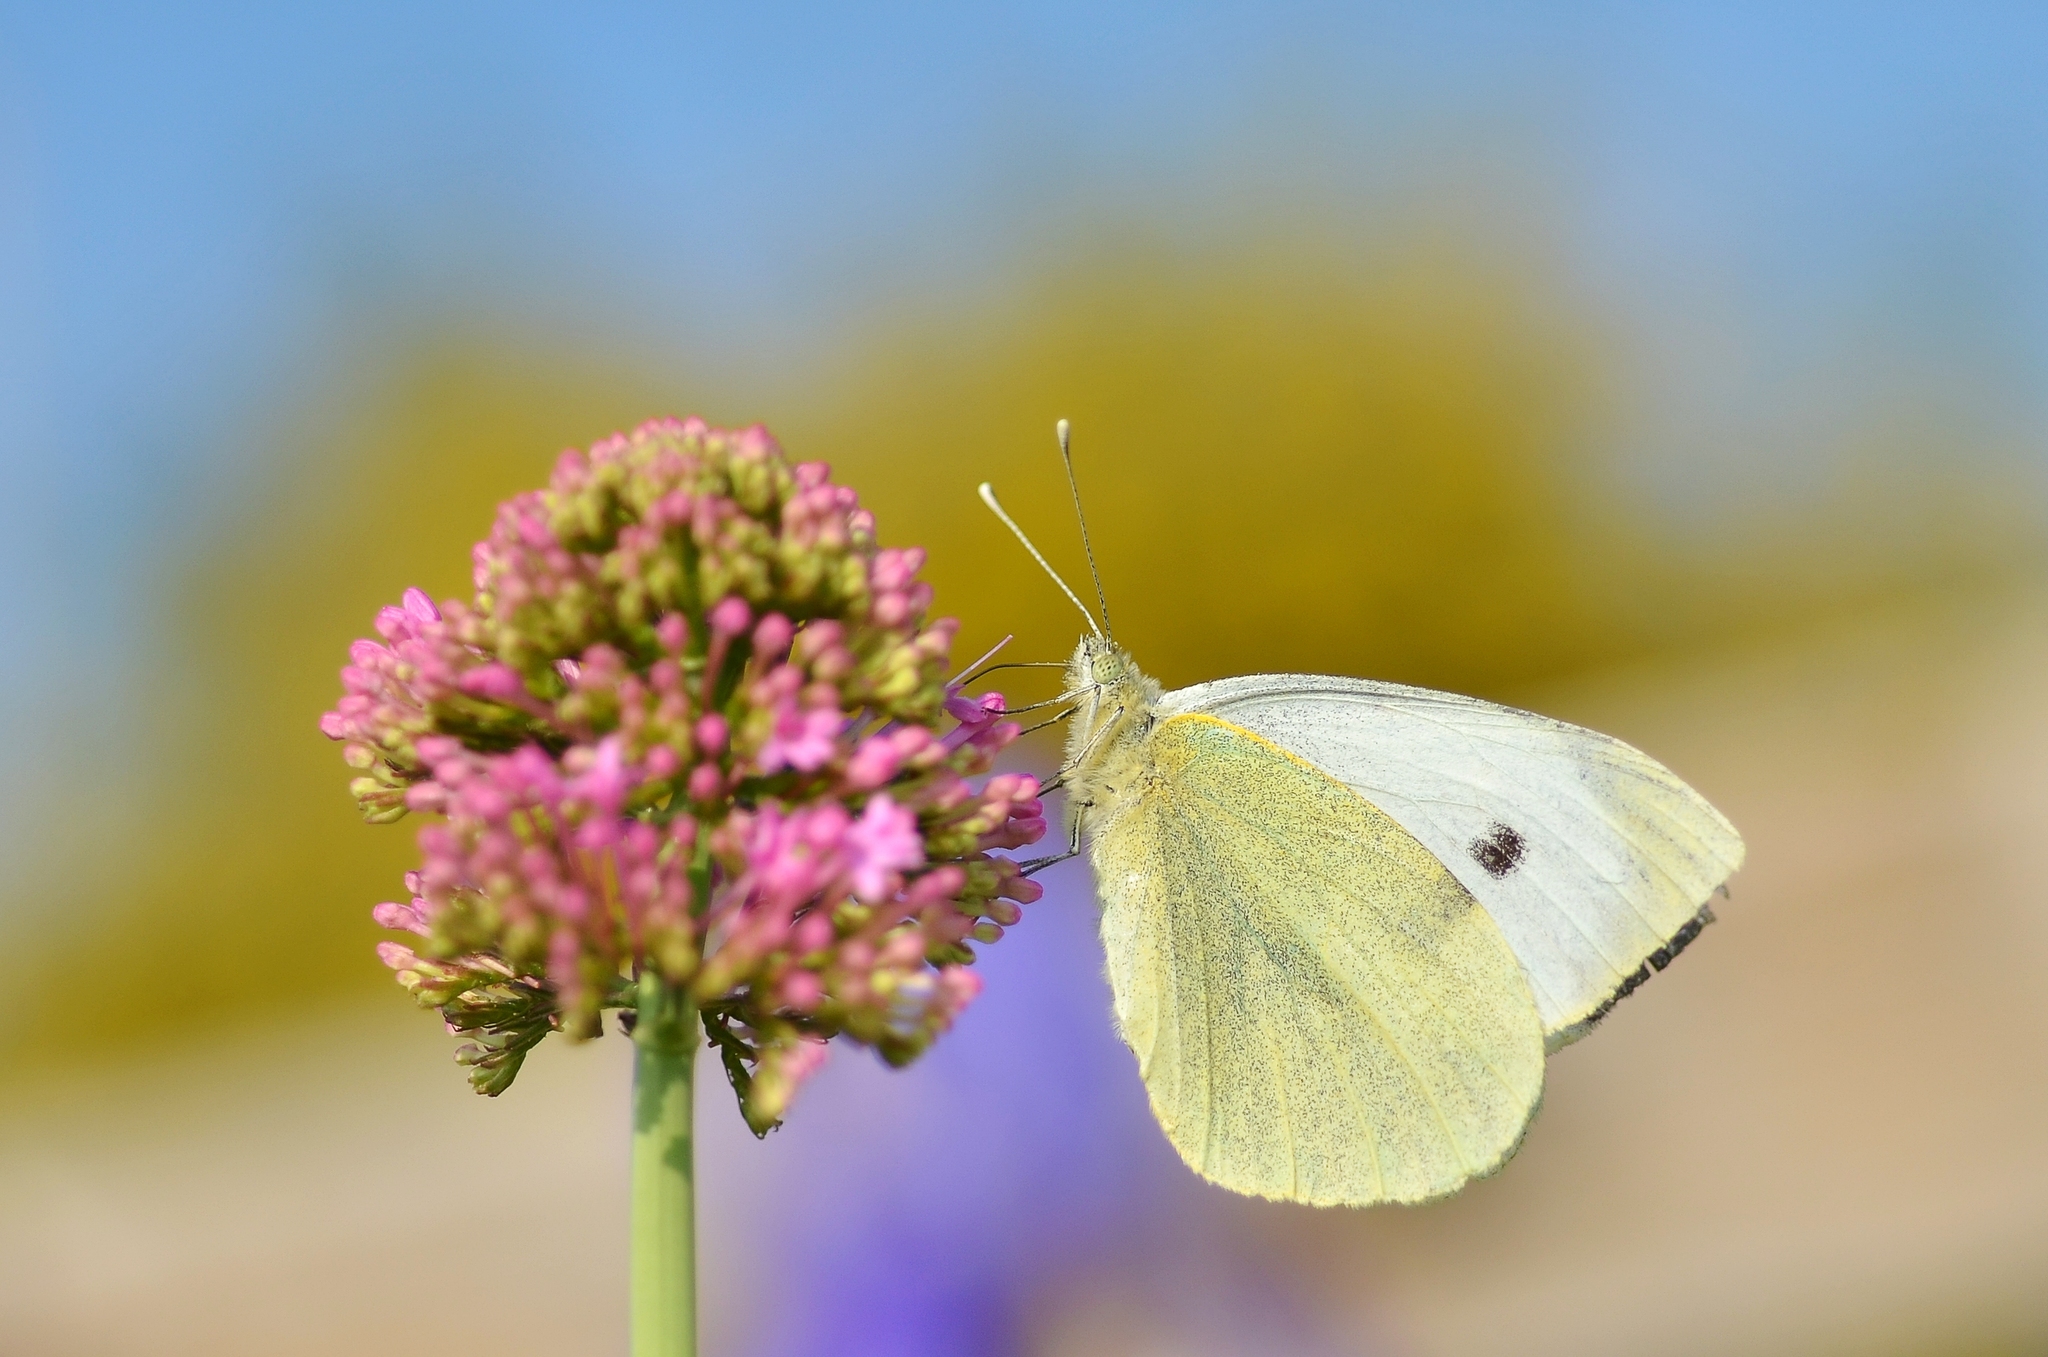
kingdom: Animalia
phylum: Arthropoda
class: Insecta
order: Lepidoptera
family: Pieridae
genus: Pieris
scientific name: Pieris brassicae
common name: Large white
